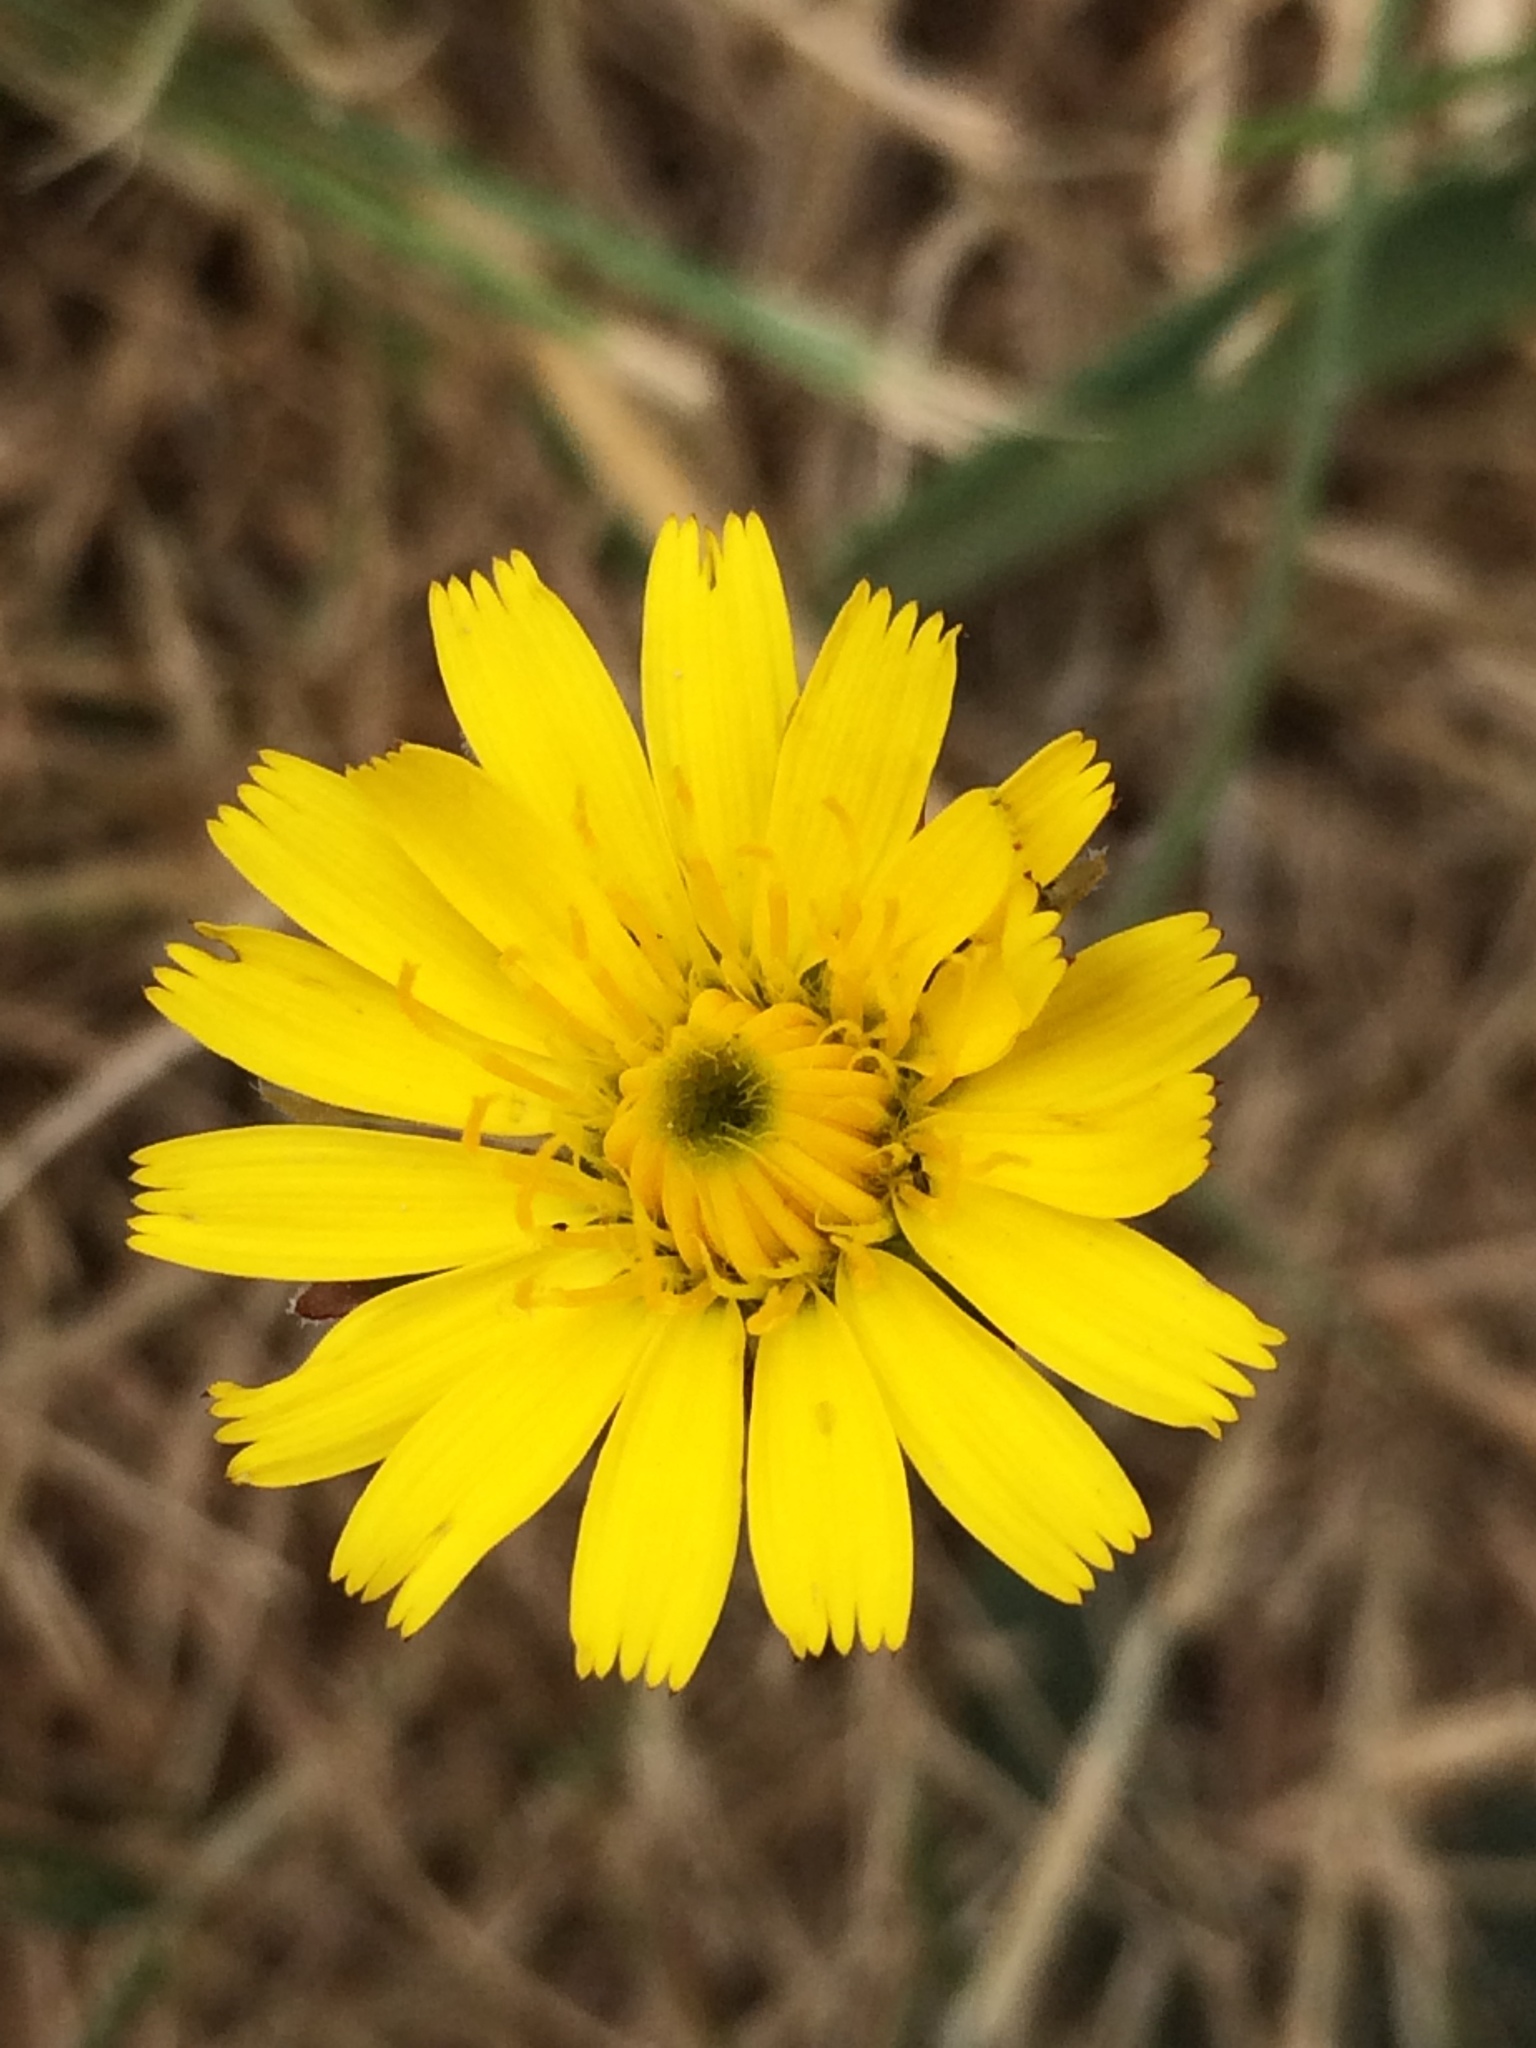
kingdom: Plantae
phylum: Tracheophyta
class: Magnoliopsida
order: Asterales
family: Asteraceae
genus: Hypochaeris
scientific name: Hypochaeris radicata
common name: Flatweed
